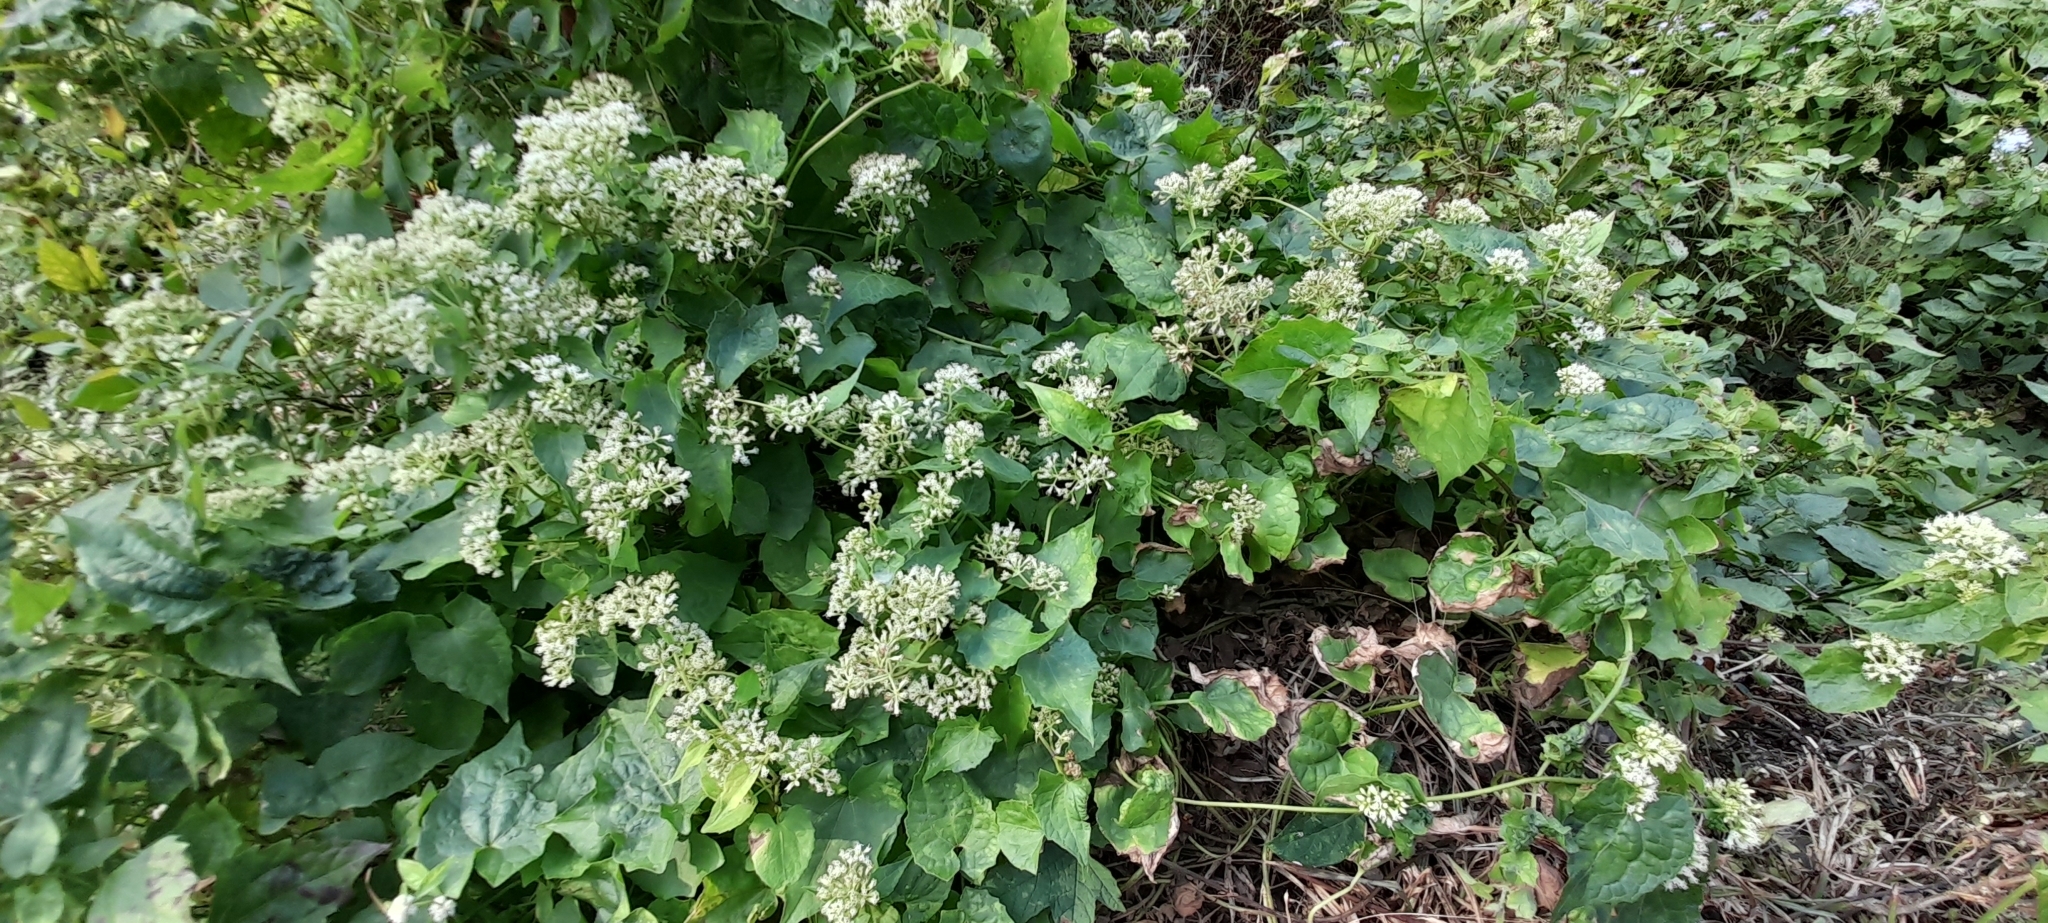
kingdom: Plantae
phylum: Tracheophyta
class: Magnoliopsida
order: Asterales
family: Asteraceae
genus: Mikania
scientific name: Mikania micrantha
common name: Mile-a-minute
